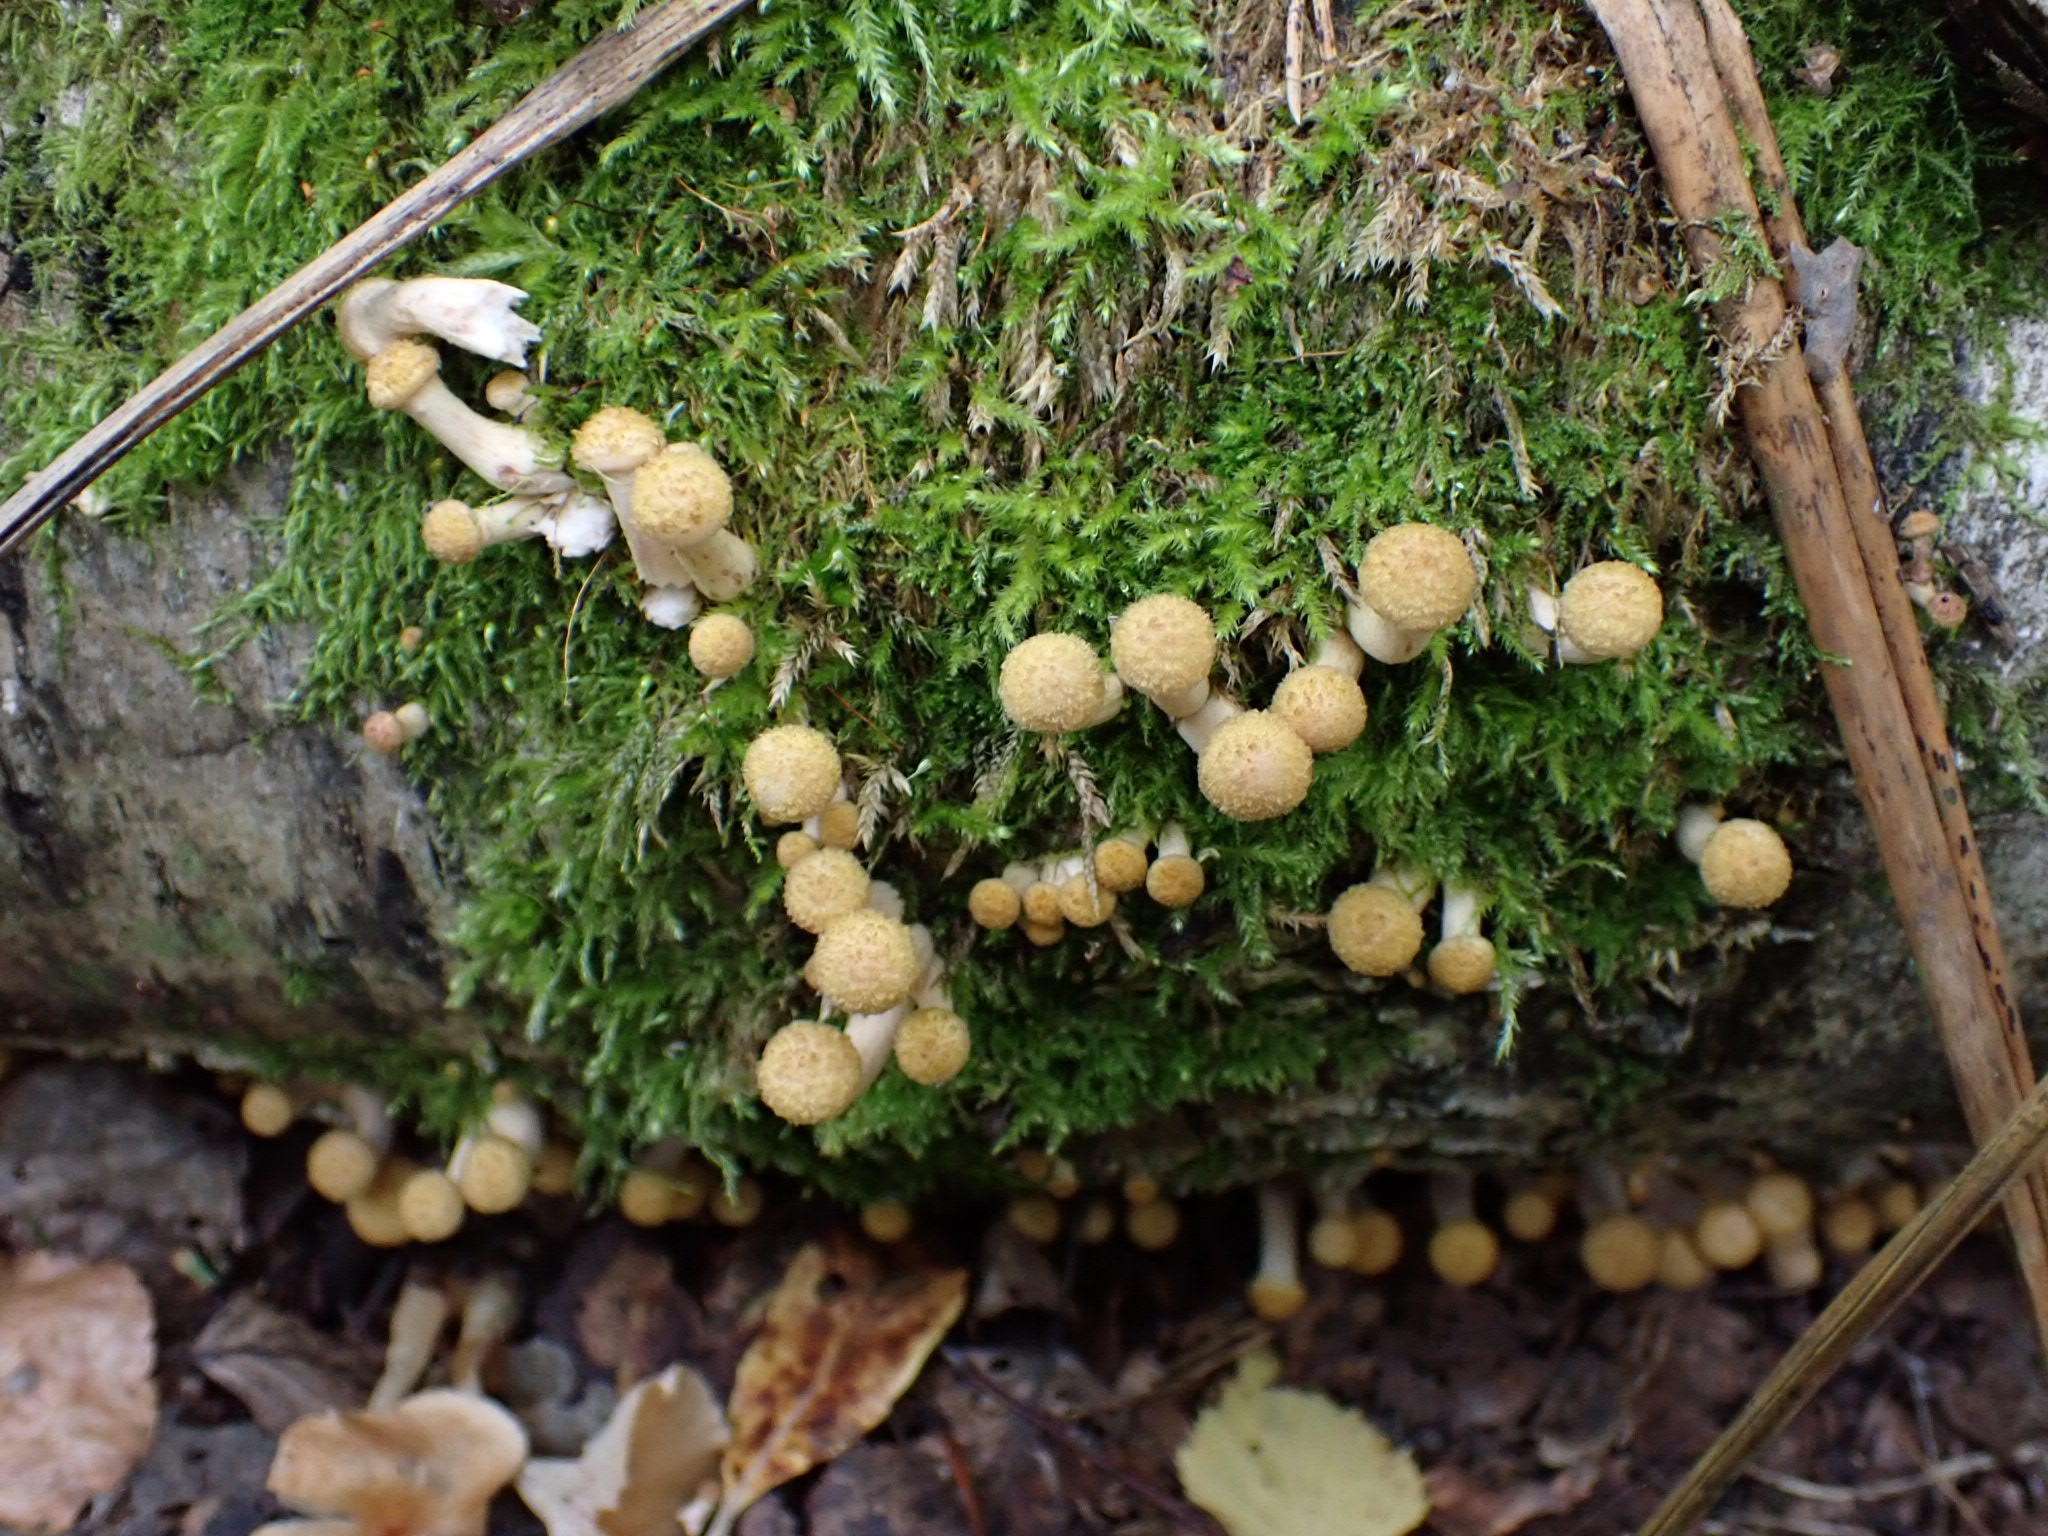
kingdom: Fungi
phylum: Basidiomycota
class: Agaricomycetes
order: Agaricales
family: Physalacriaceae
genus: Armillaria
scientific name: Armillaria borealis
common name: Northern honey fungus
